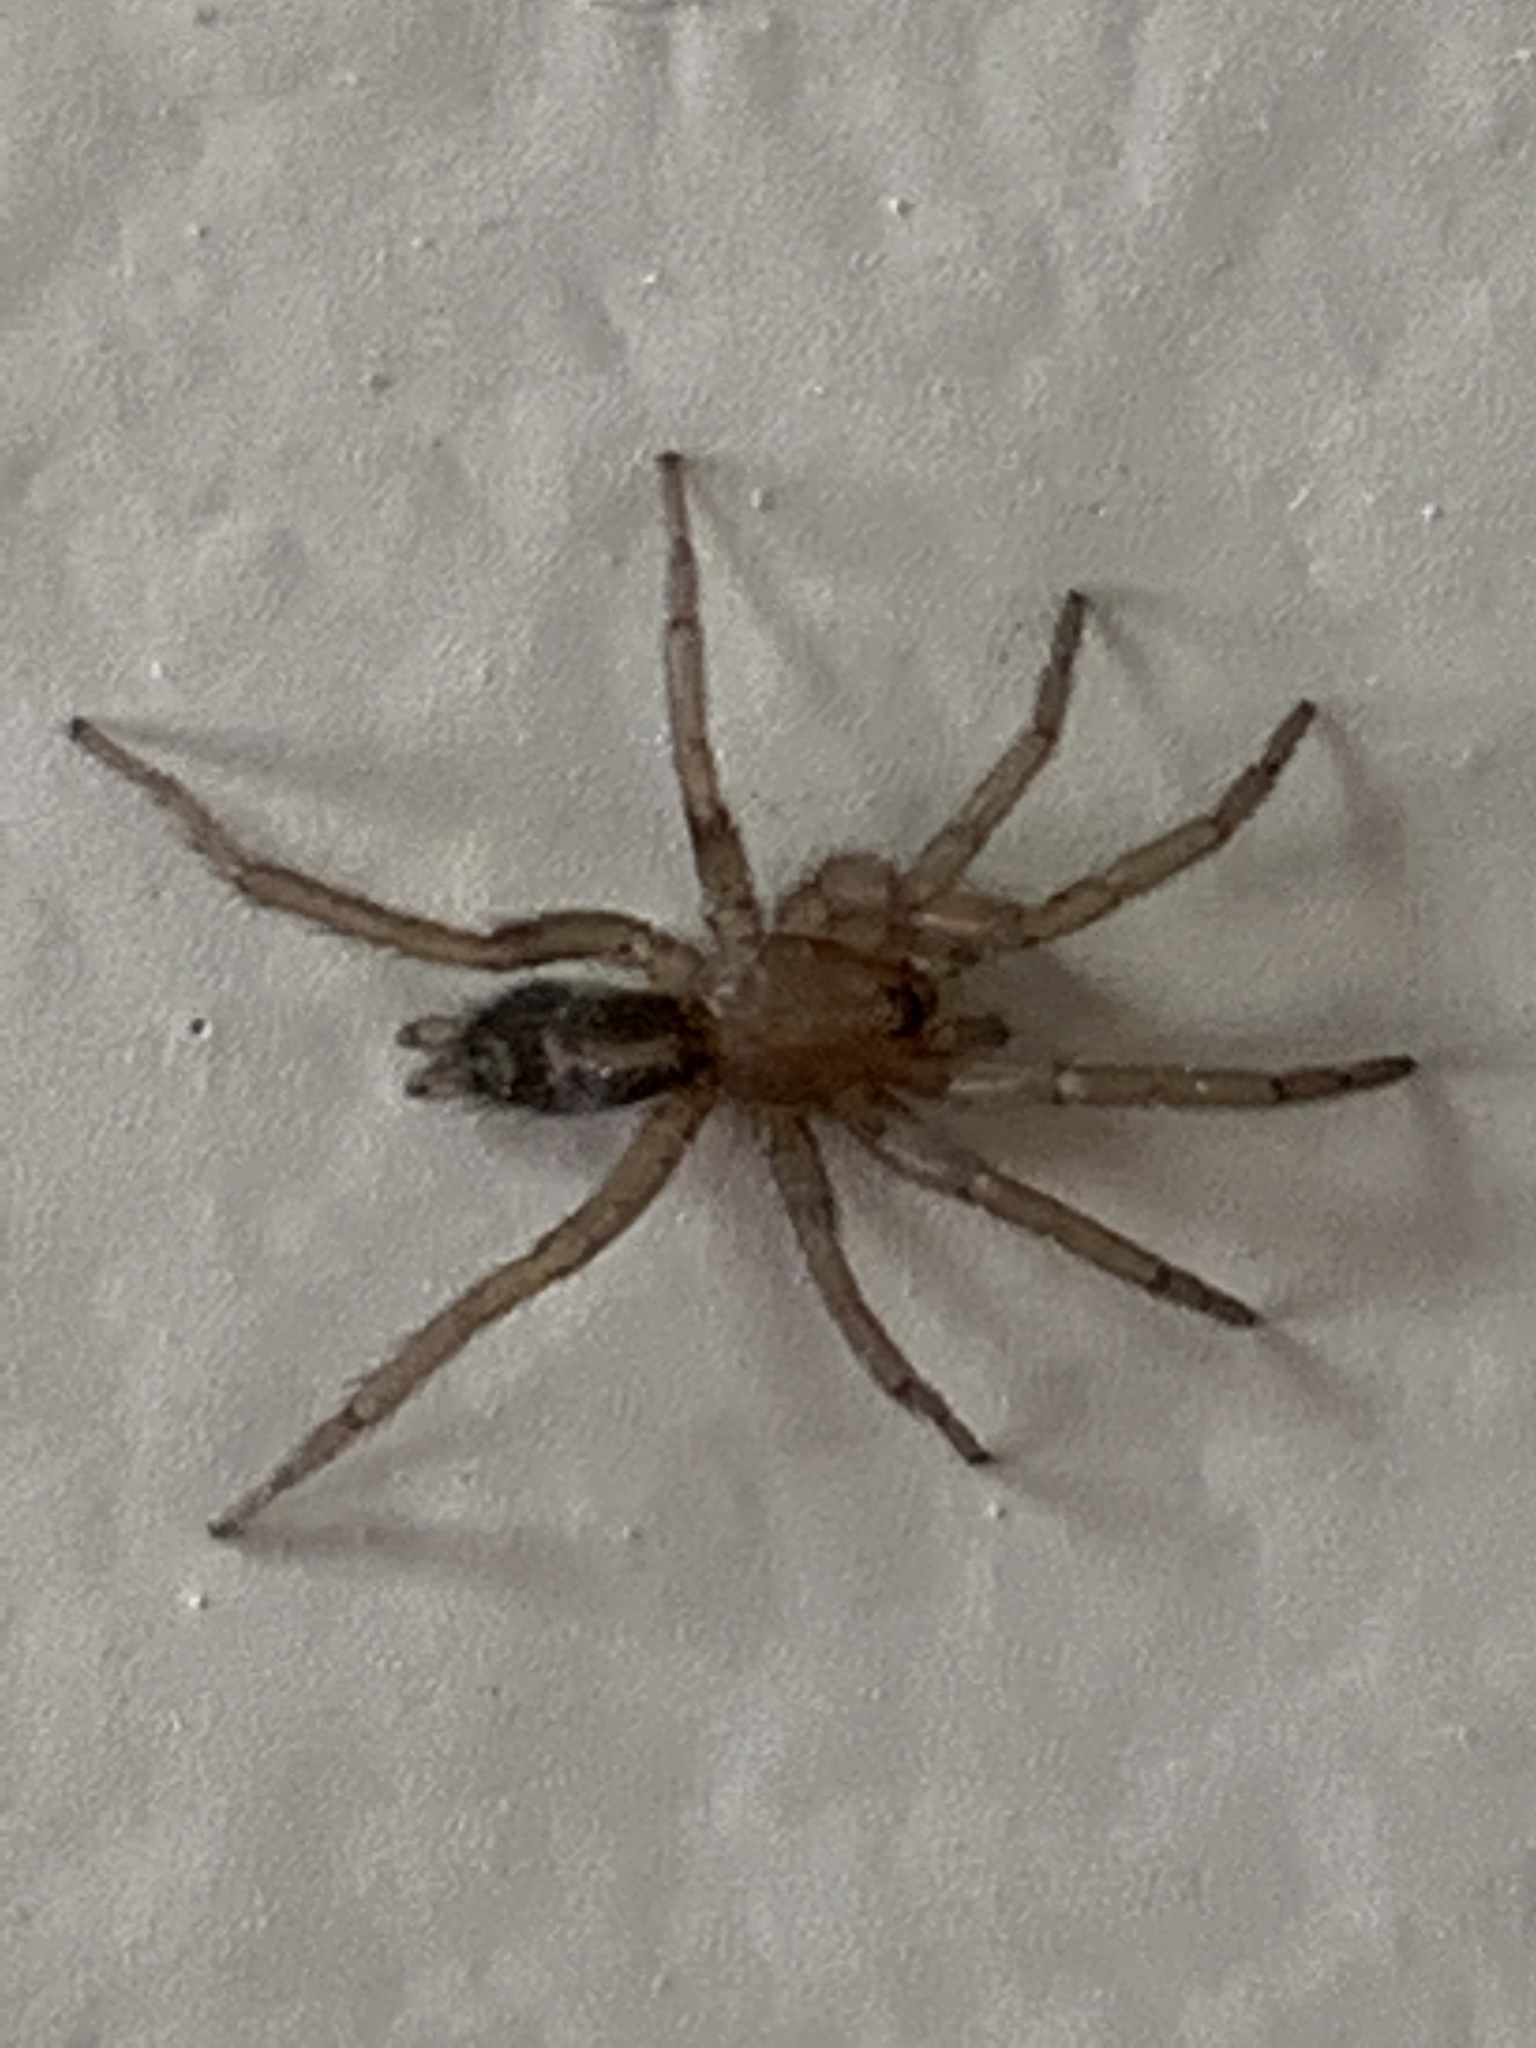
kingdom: Animalia
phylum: Arthropoda
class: Arachnida
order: Araneae
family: Gnaphosidae
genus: Herpyllus
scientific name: Herpyllus propinquus
